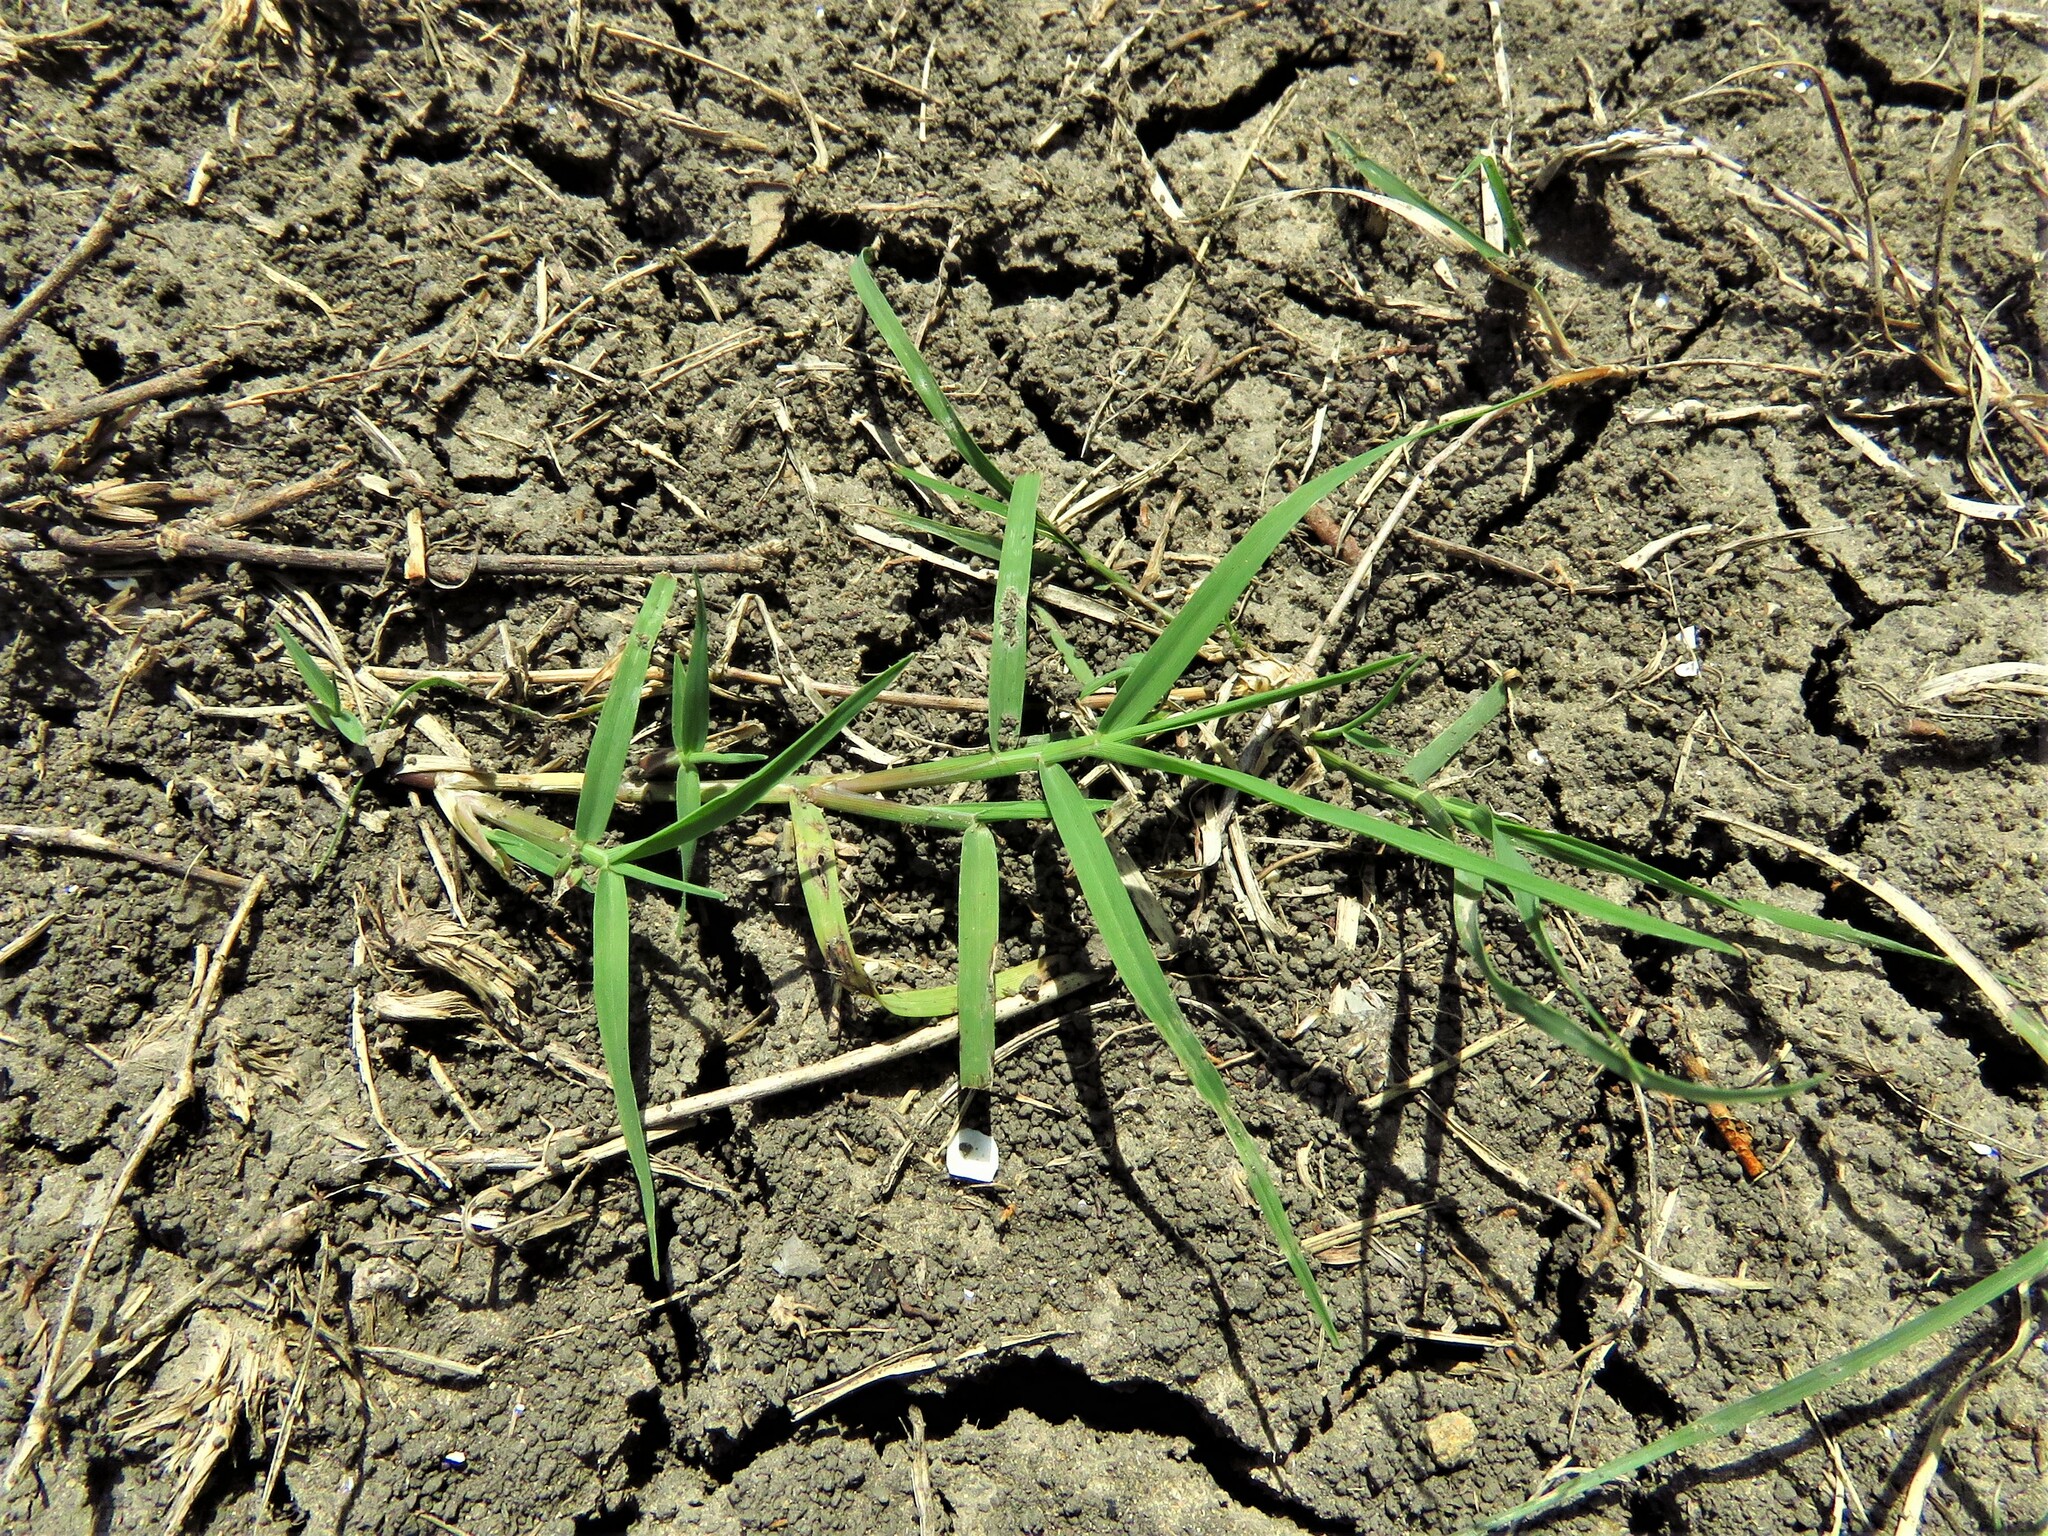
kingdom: Plantae
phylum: Tracheophyta
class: Liliopsida
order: Poales
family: Poaceae
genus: Cynodon
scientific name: Cynodon dactylon
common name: Bermuda grass
